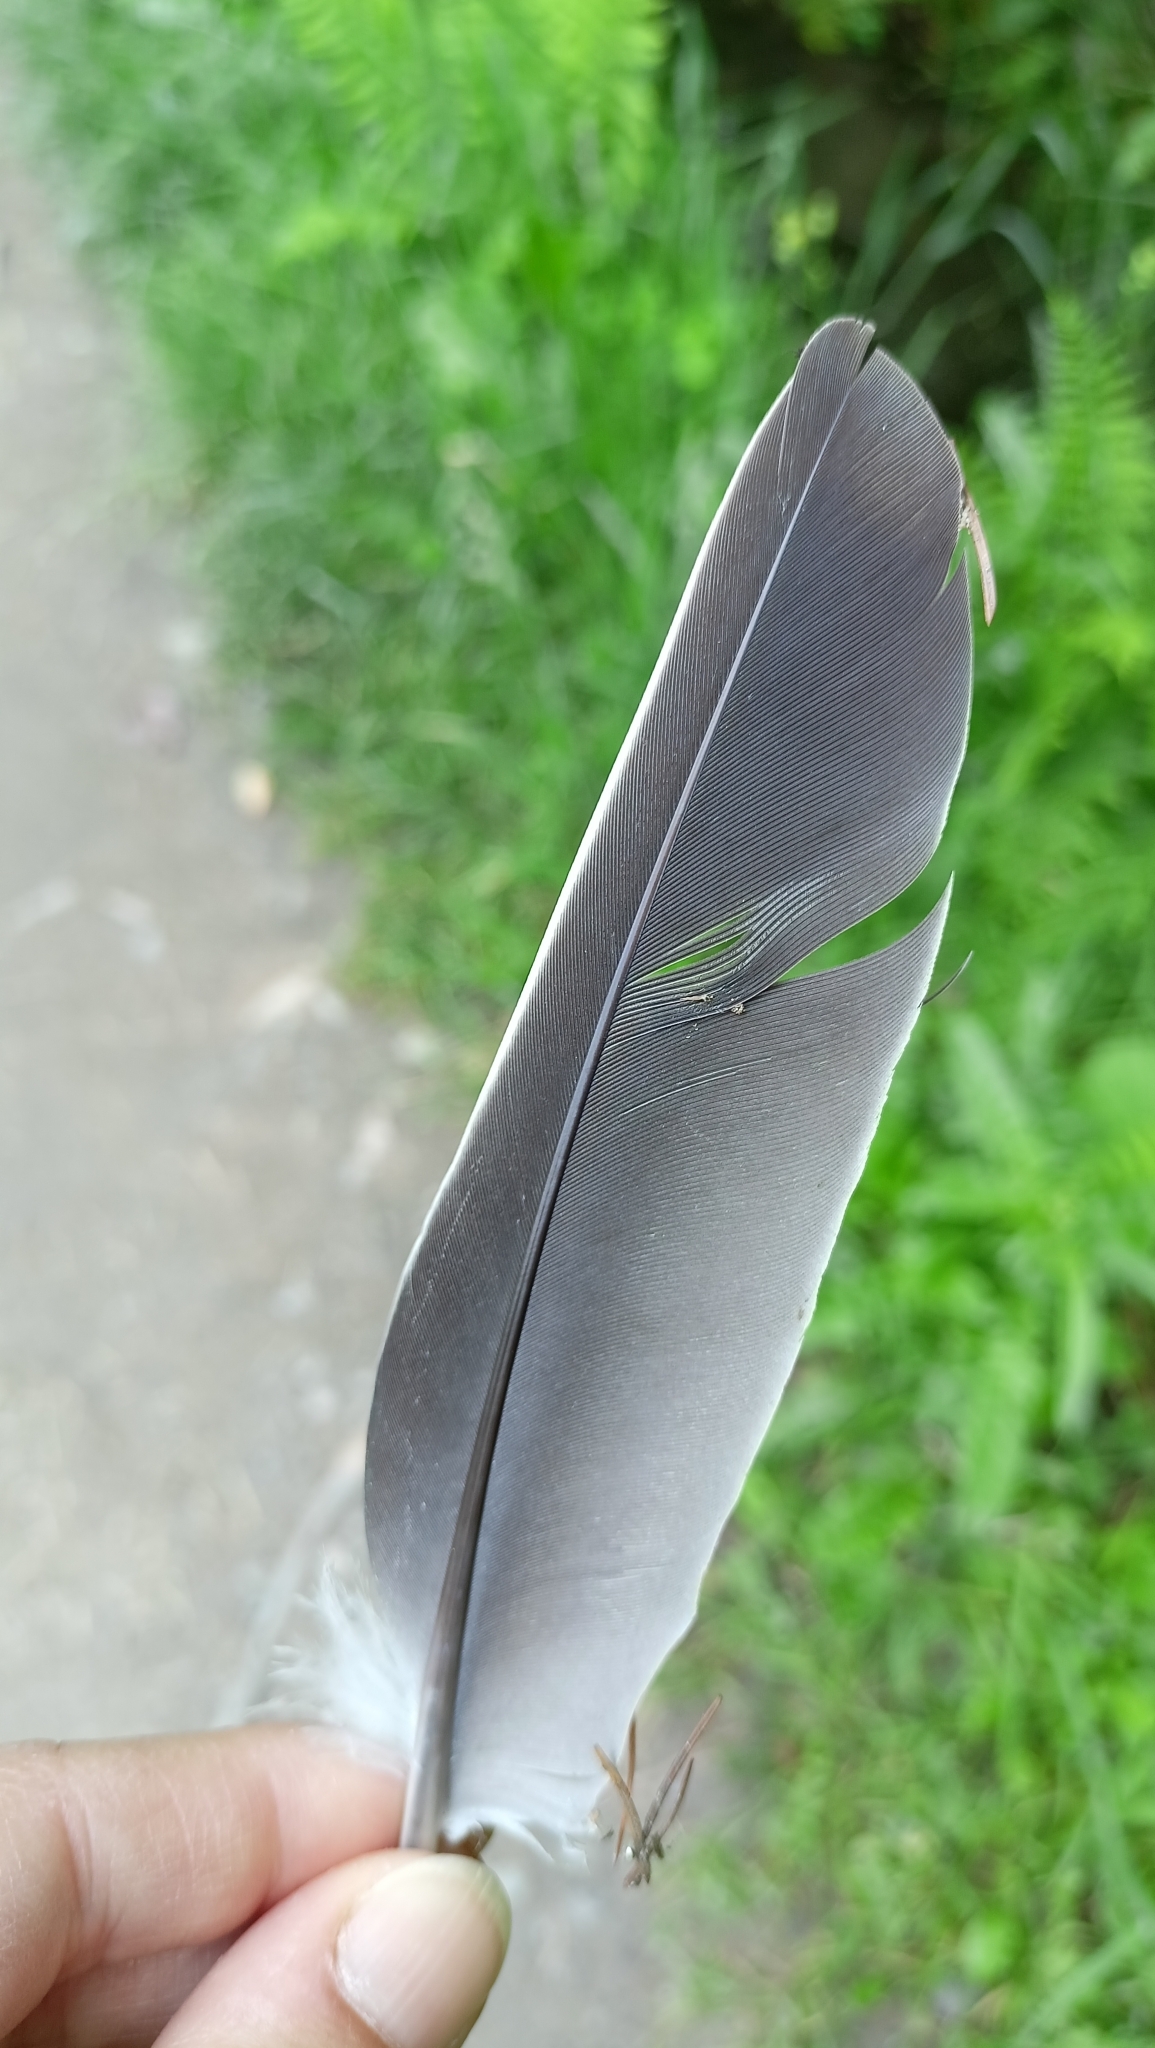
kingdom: Animalia
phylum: Chordata
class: Aves
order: Columbiformes
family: Columbidae
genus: Columba
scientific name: Columba palumbus
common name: Common wood pigeon
